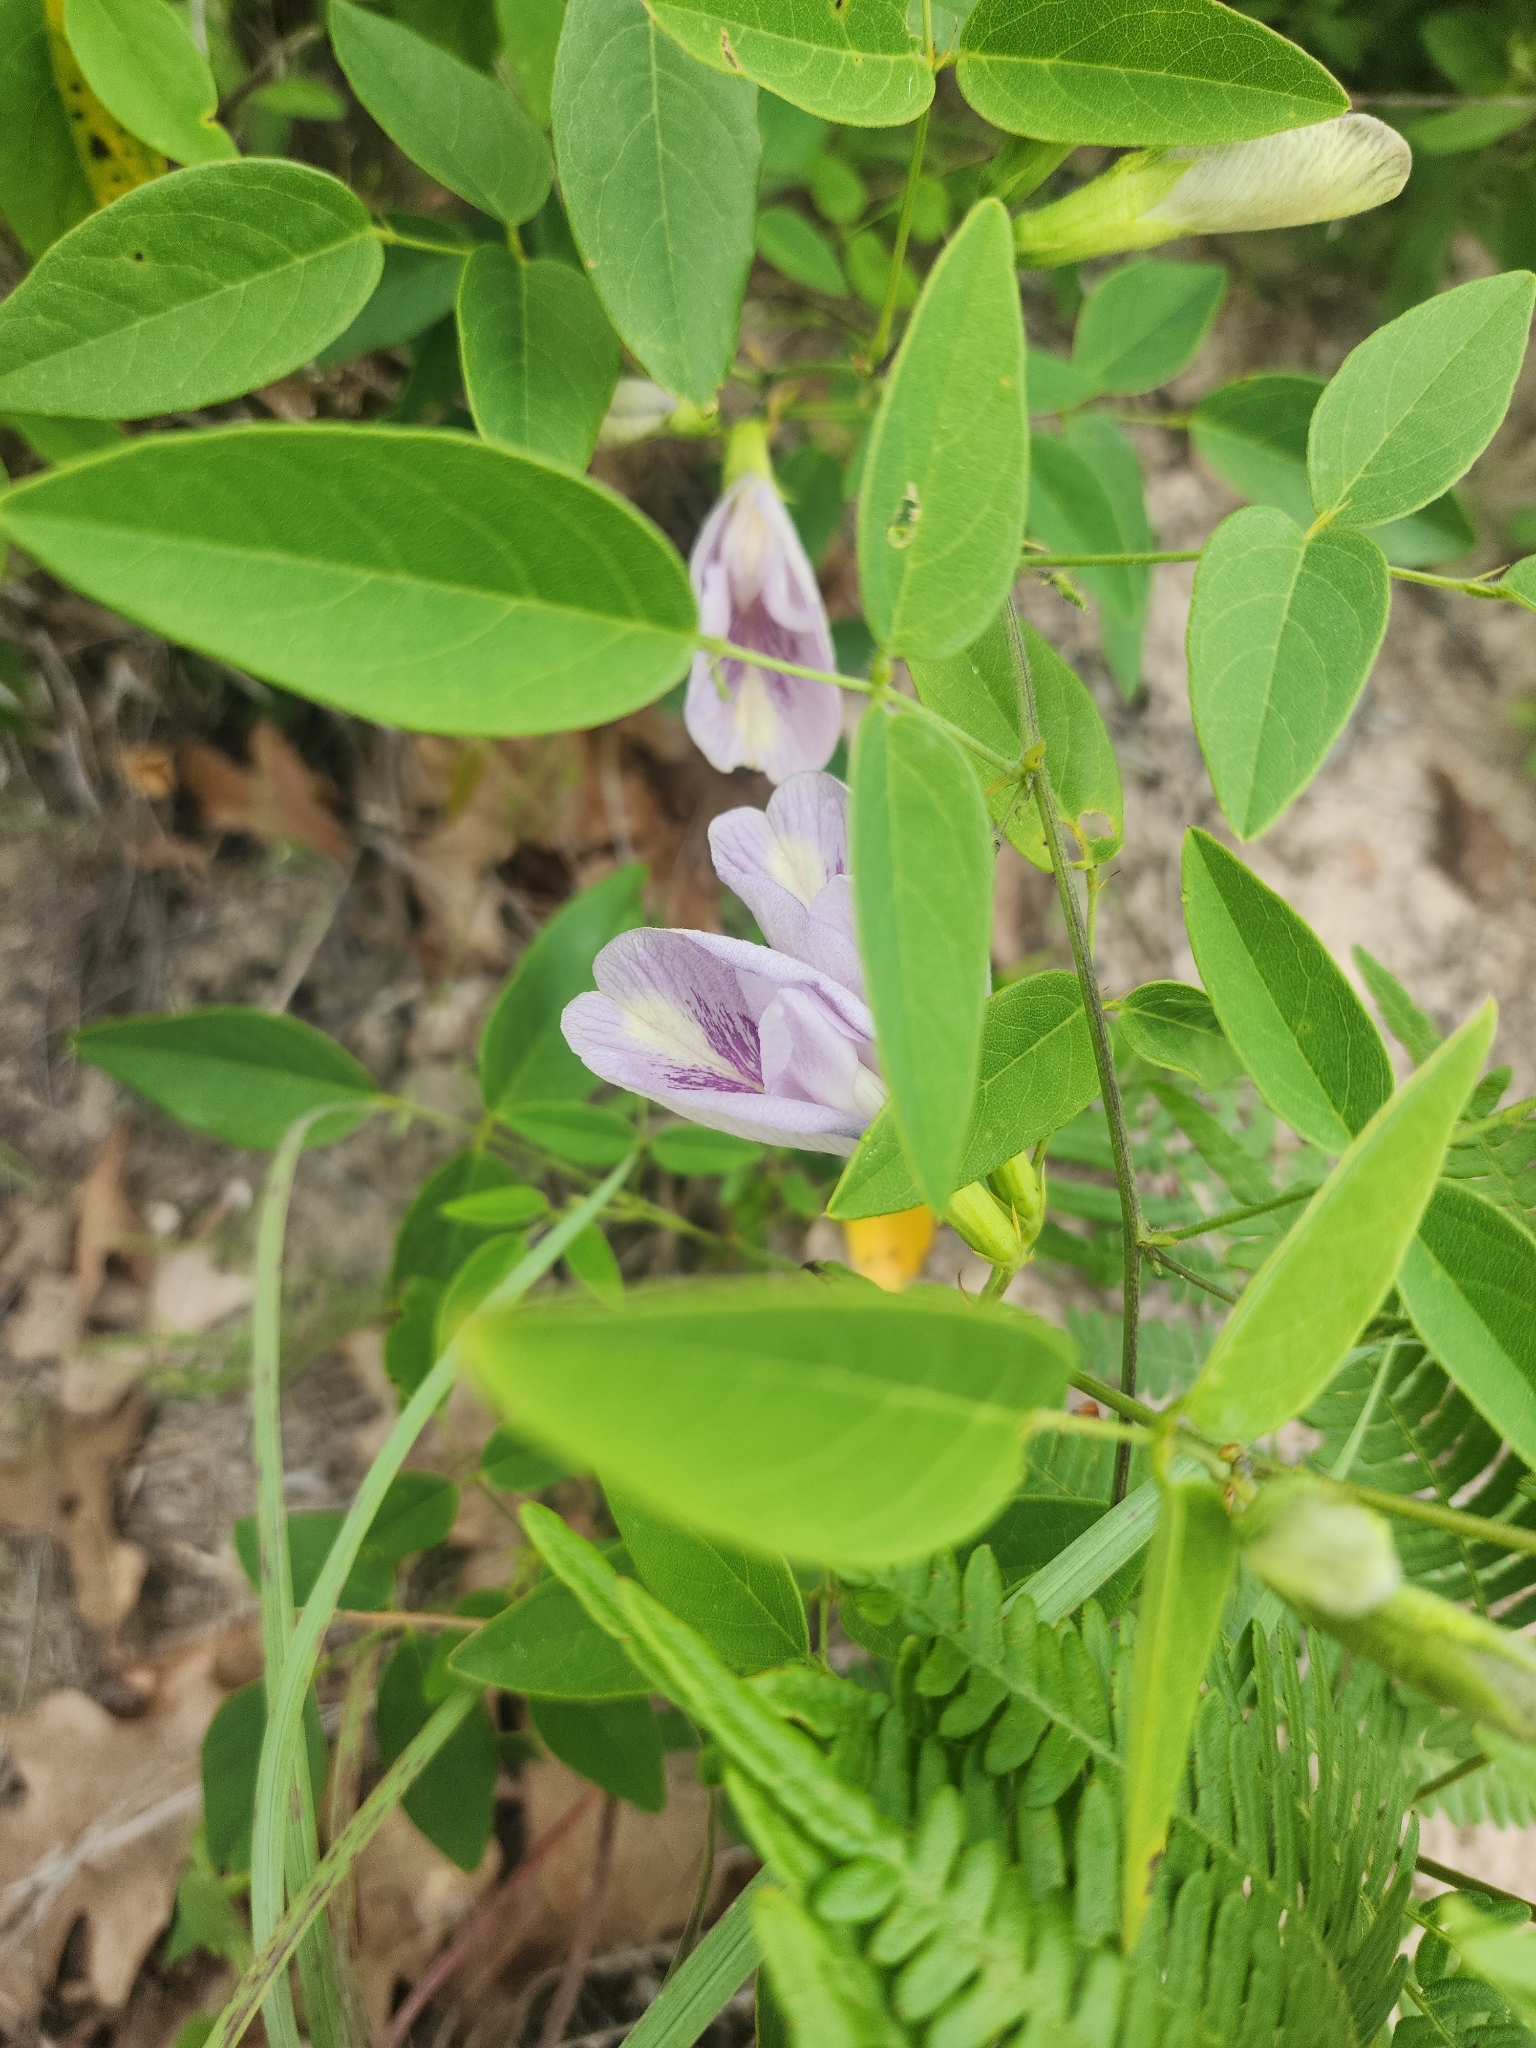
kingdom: Plantae
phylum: Tracheophyta
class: Magnoliopsida
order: Fabales
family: Fabaceae
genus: Clitoria
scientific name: Clitoria mariana
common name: Butterfly-pea
